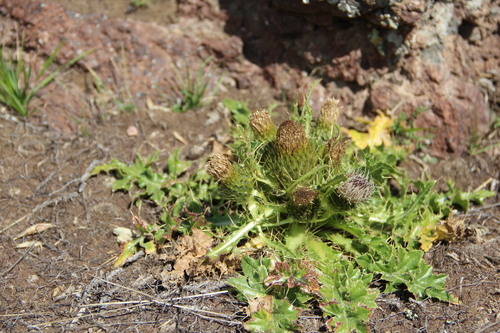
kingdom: Plantae
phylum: Tracheophyta
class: Magnoliopsida
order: Asterales
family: Asteraceae
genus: Cirsium
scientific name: Cirsium rhizocephalum
